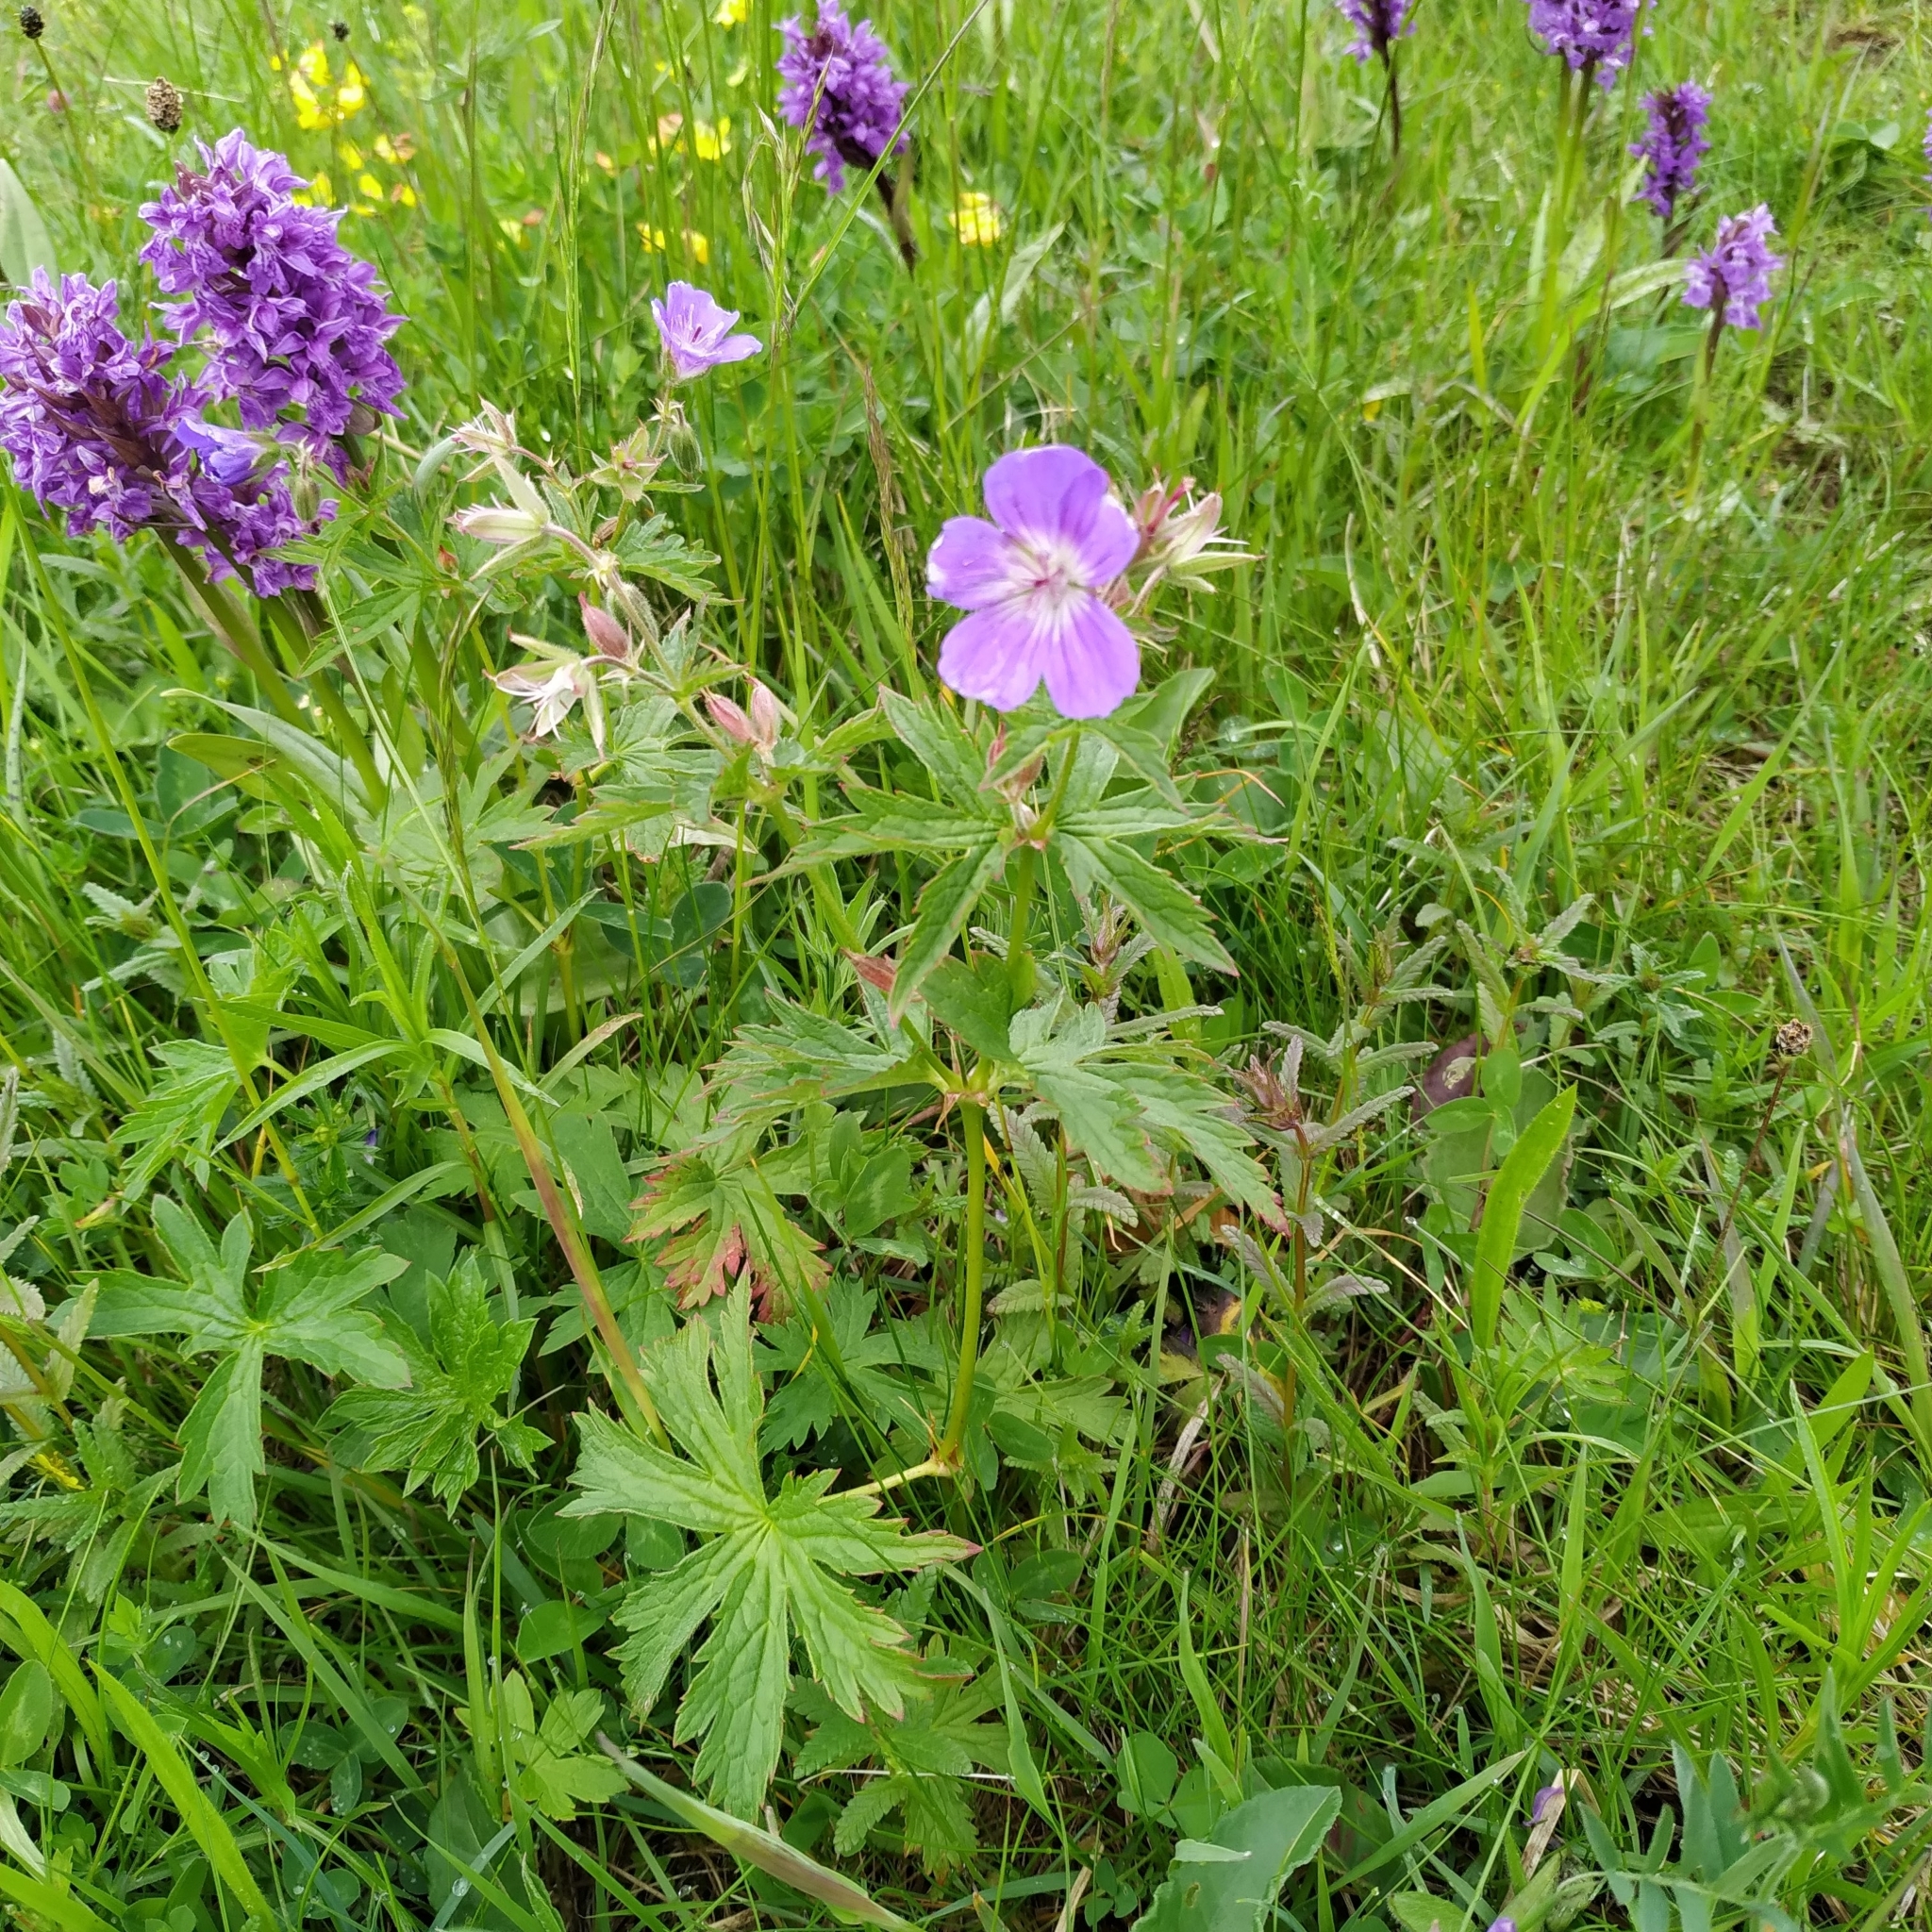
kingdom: Plantae
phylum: Tracheophyta
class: Magnoliopsida
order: Geraniales
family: Geraniaceae
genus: Geranium
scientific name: Geranium sylvaticum
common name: Wood crane's-bill
